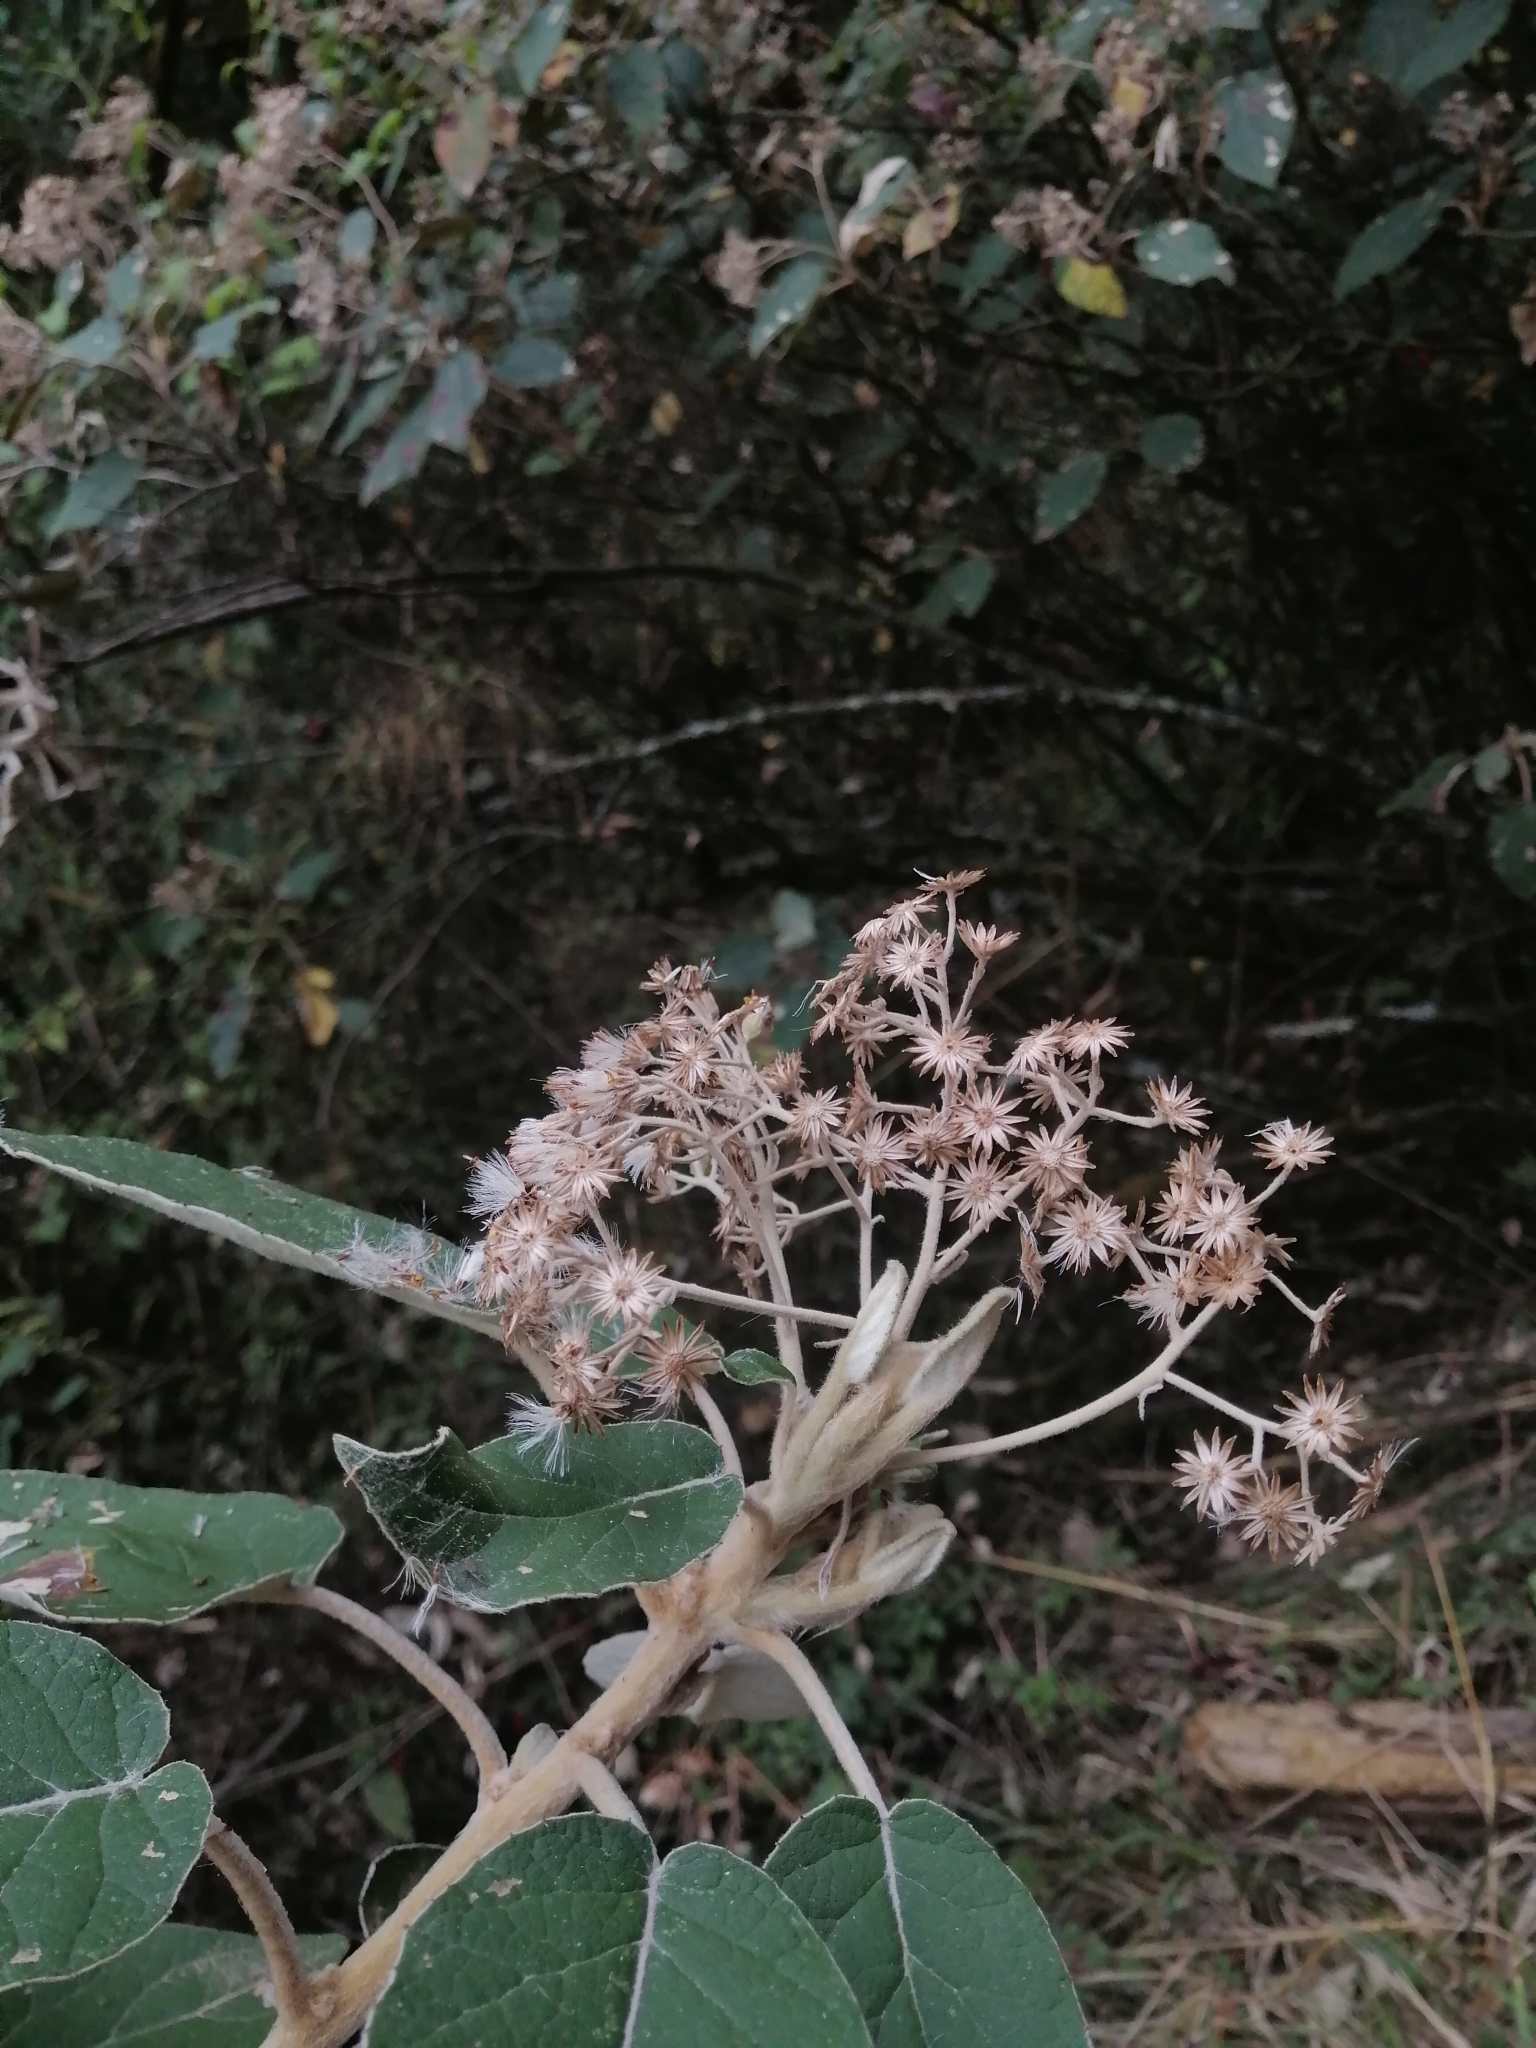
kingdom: Plantae
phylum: Tracheophyta
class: Magnoliopsida
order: Asterales
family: Asteraceae
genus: Roldana
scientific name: Roldana barba-johannis
